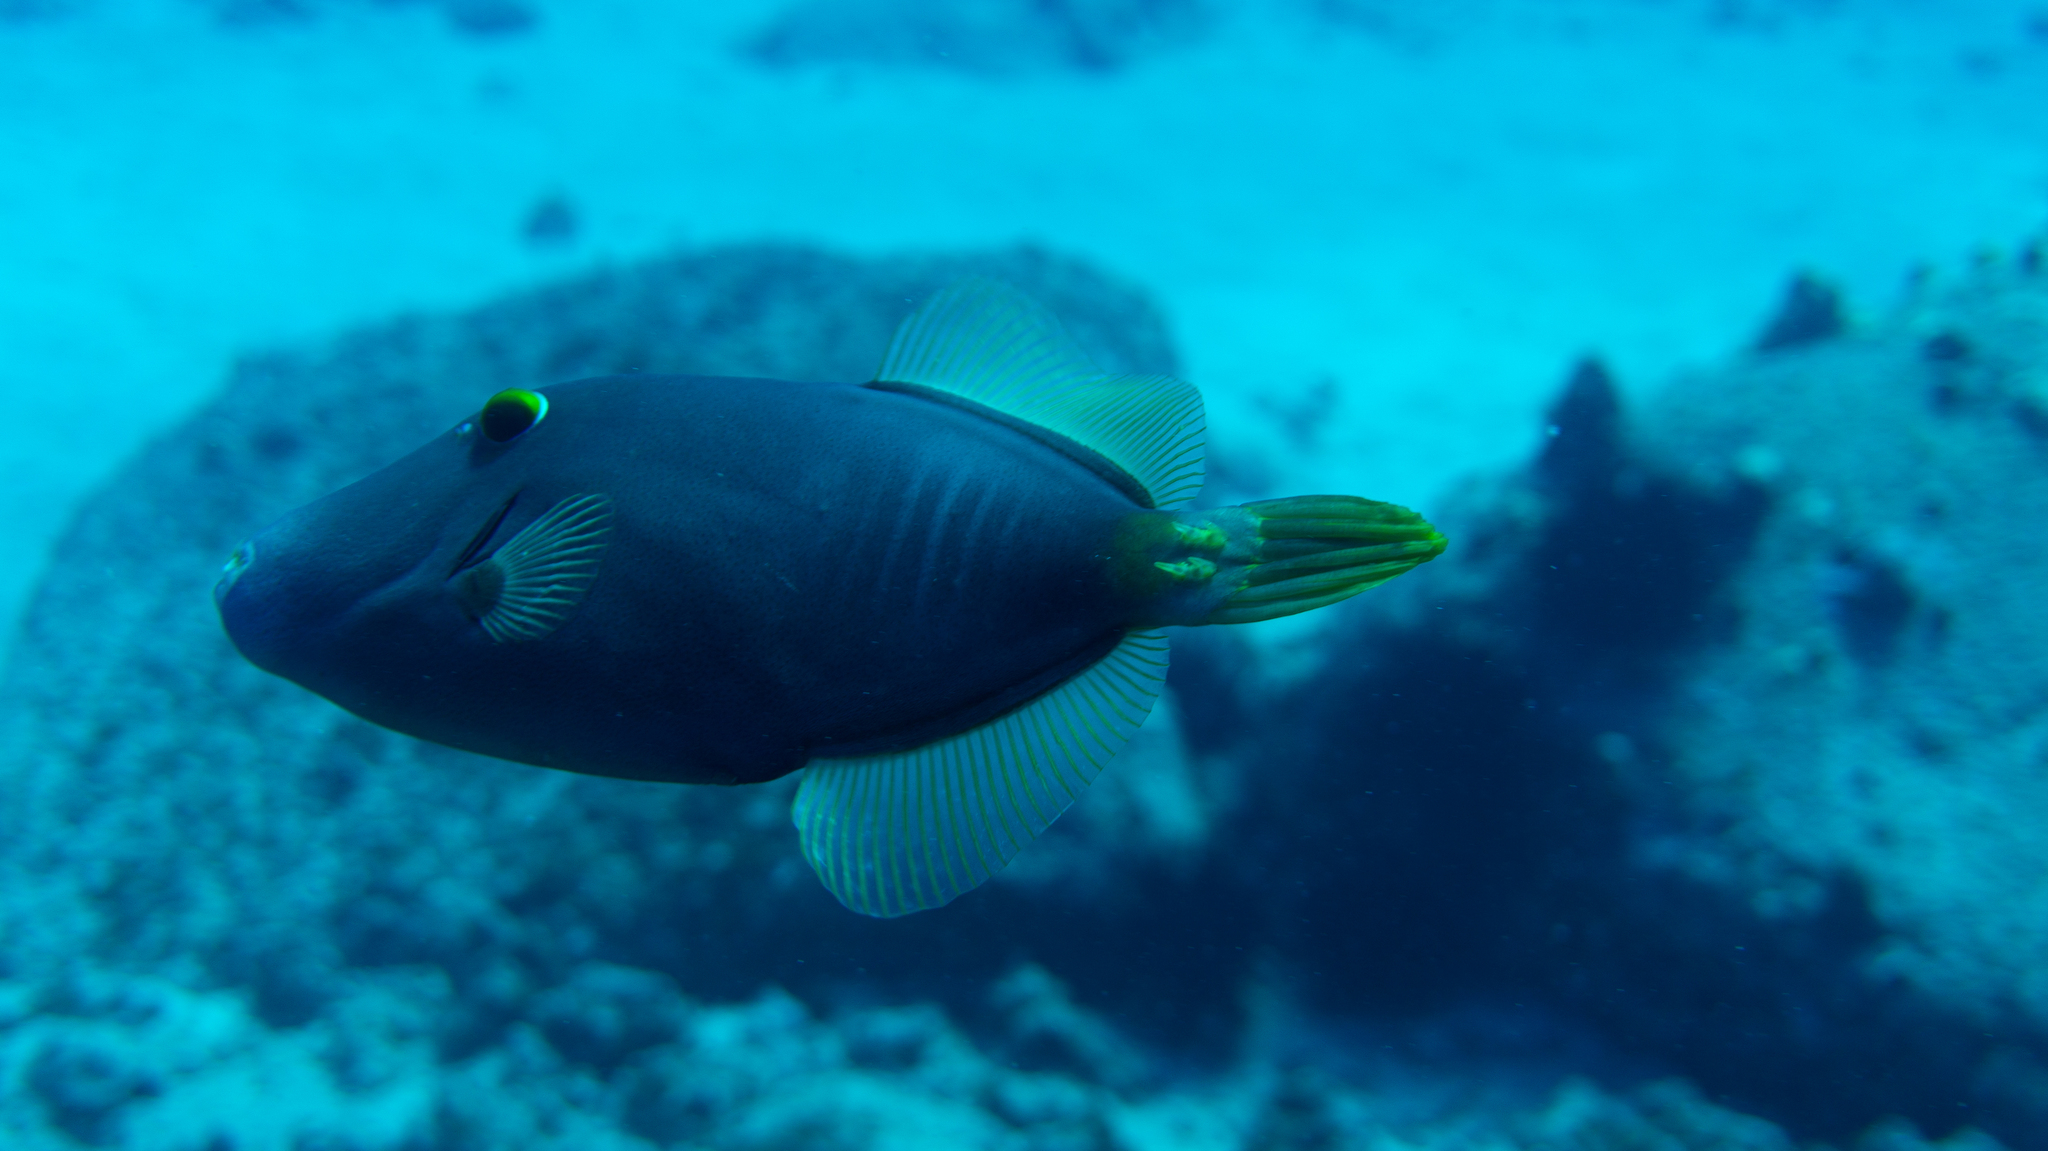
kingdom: Animalia
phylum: Chordata
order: Tetraodontiformes
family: Monacanthidae
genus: Cantherhines
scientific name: Cantherhines dumerilii
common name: Barred filefish
